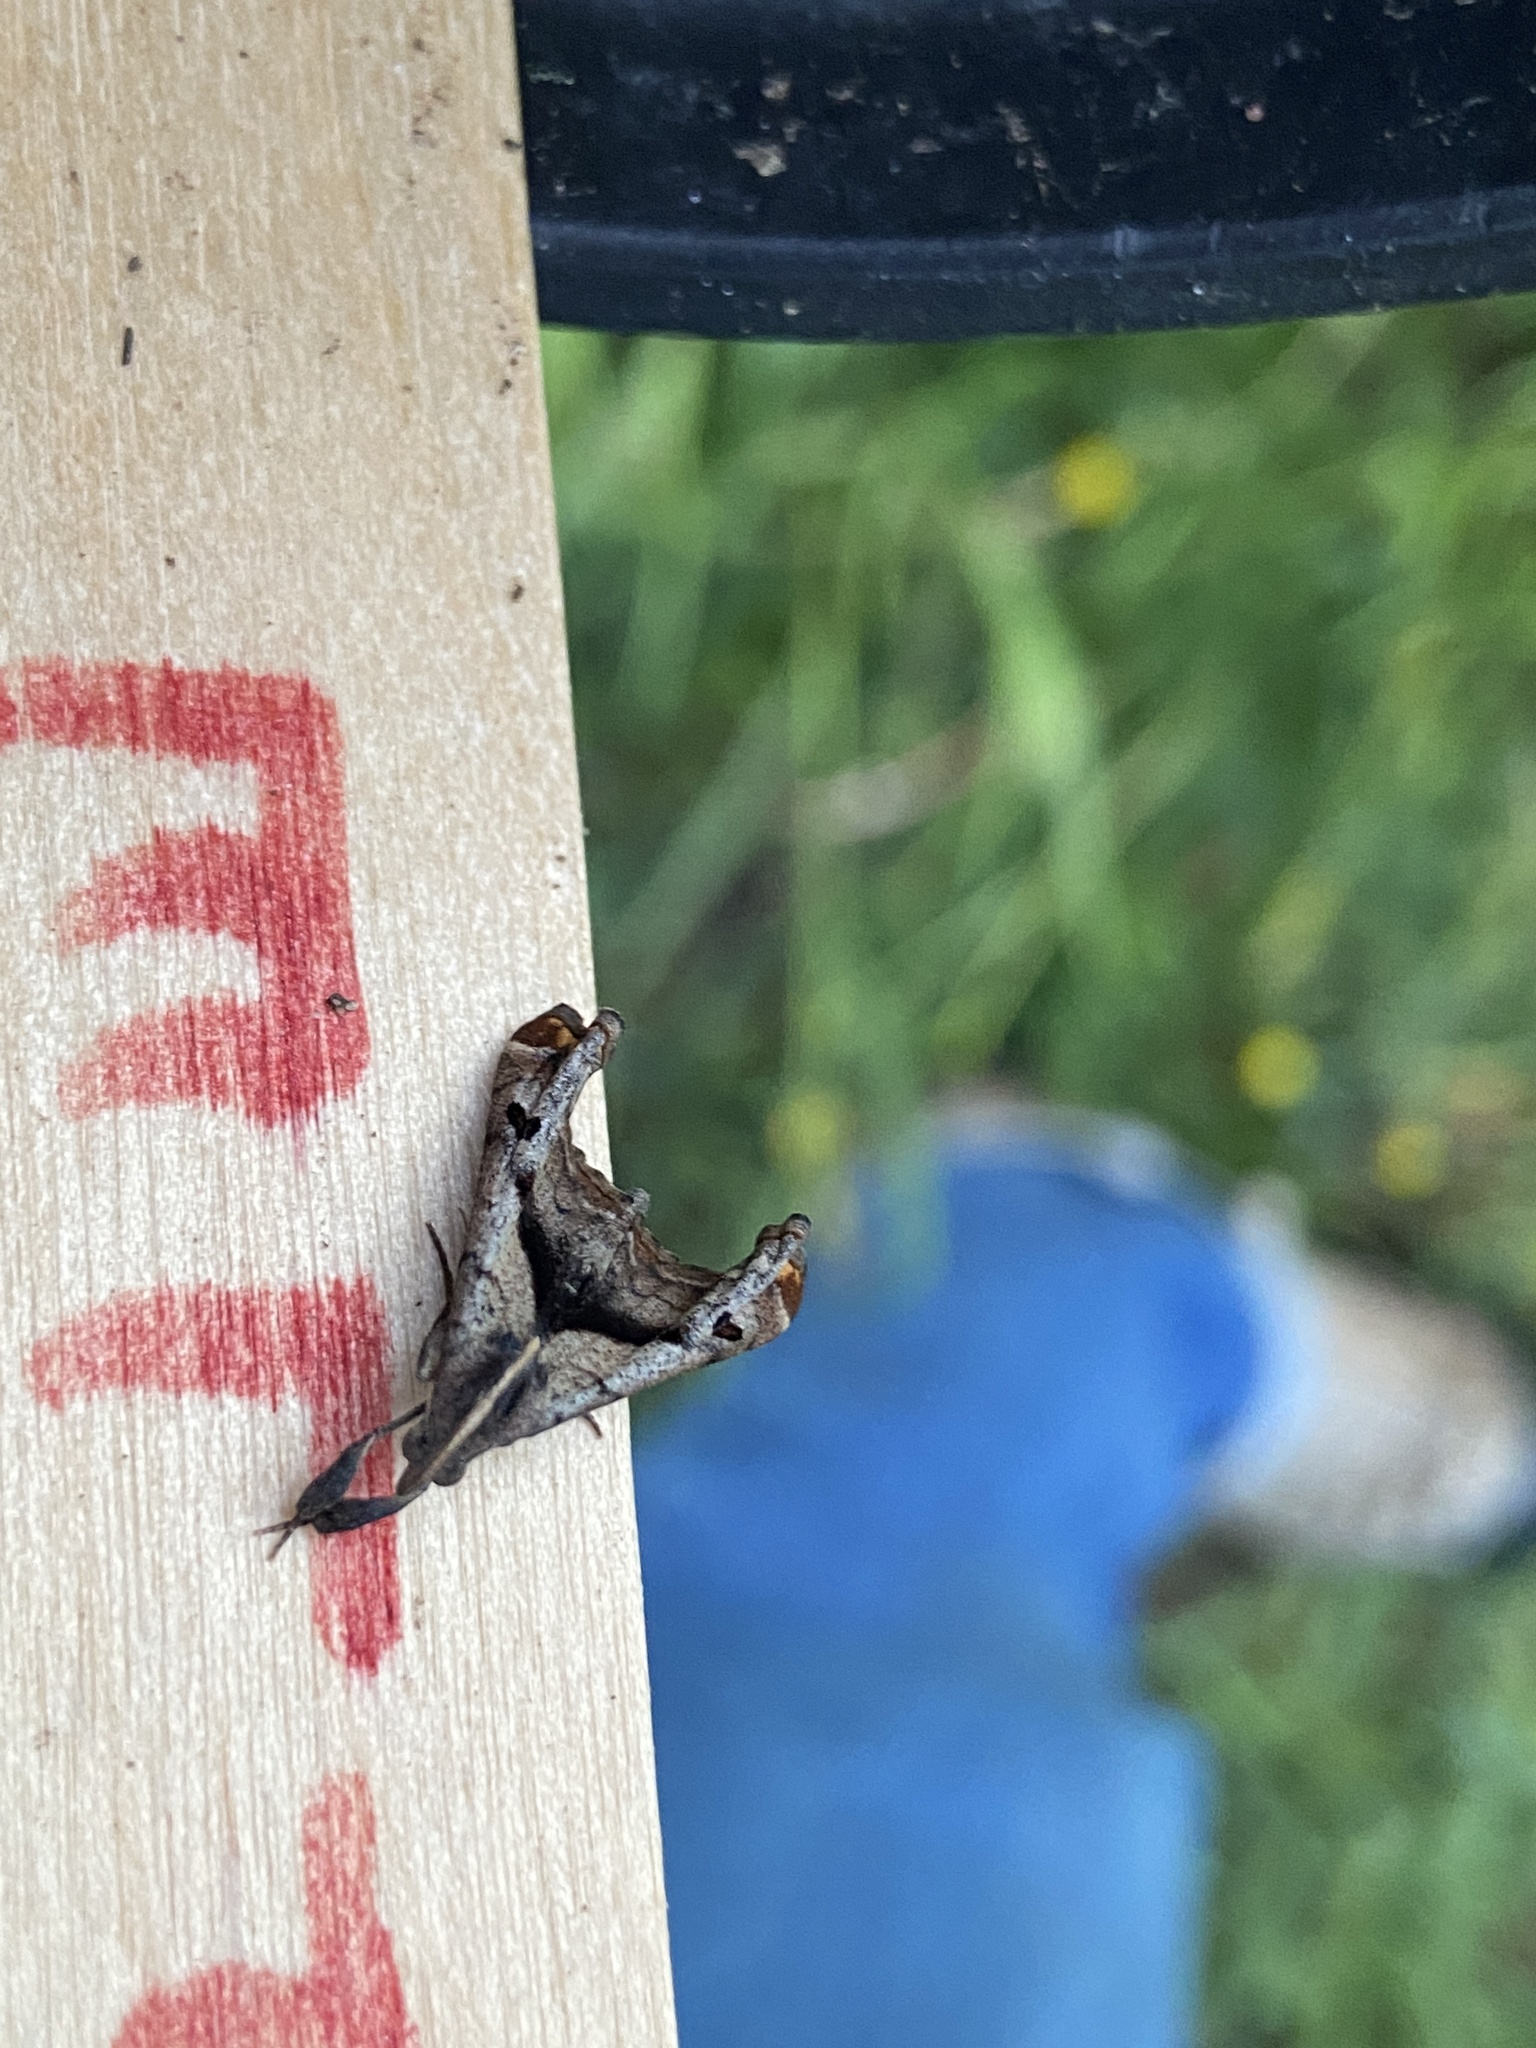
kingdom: Animalia
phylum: Arthropoda
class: Insecta
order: Lepidoptera
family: Erebidae
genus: Palthis
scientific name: Palthis angulalis
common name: Dark-spotted palthis moth
